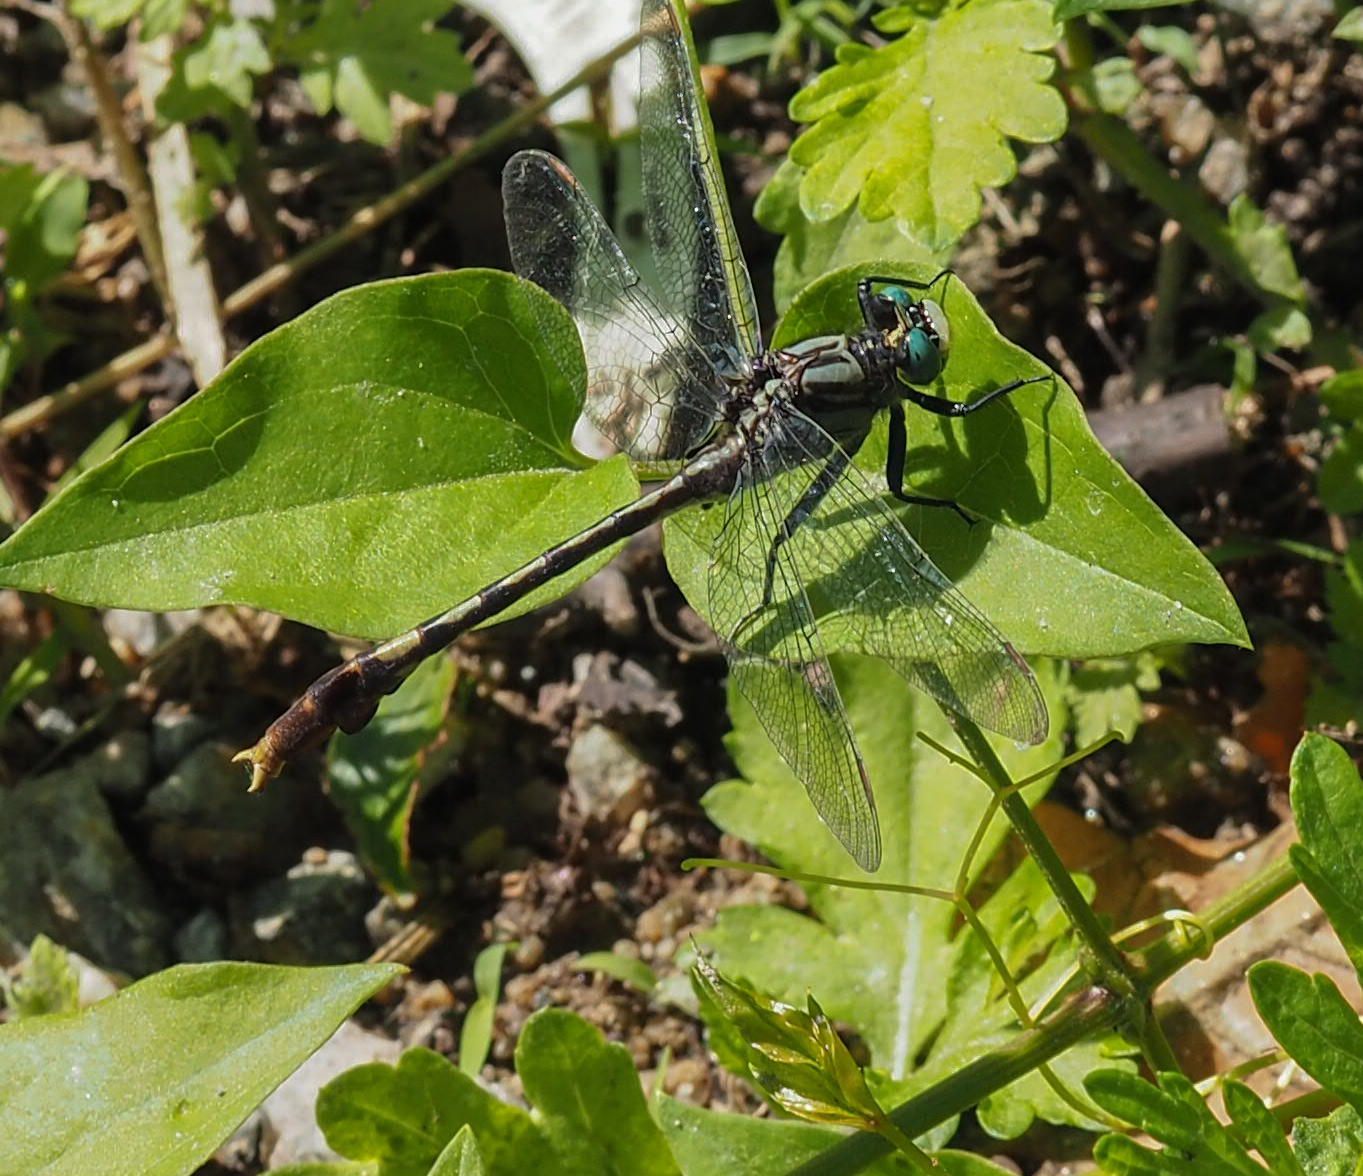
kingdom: Animalia
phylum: Arthropoda
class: Insecta
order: Odonata
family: Gomphidae
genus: Arigomphus
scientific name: Arigomphus villosipes
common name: Unicorn clubtail
